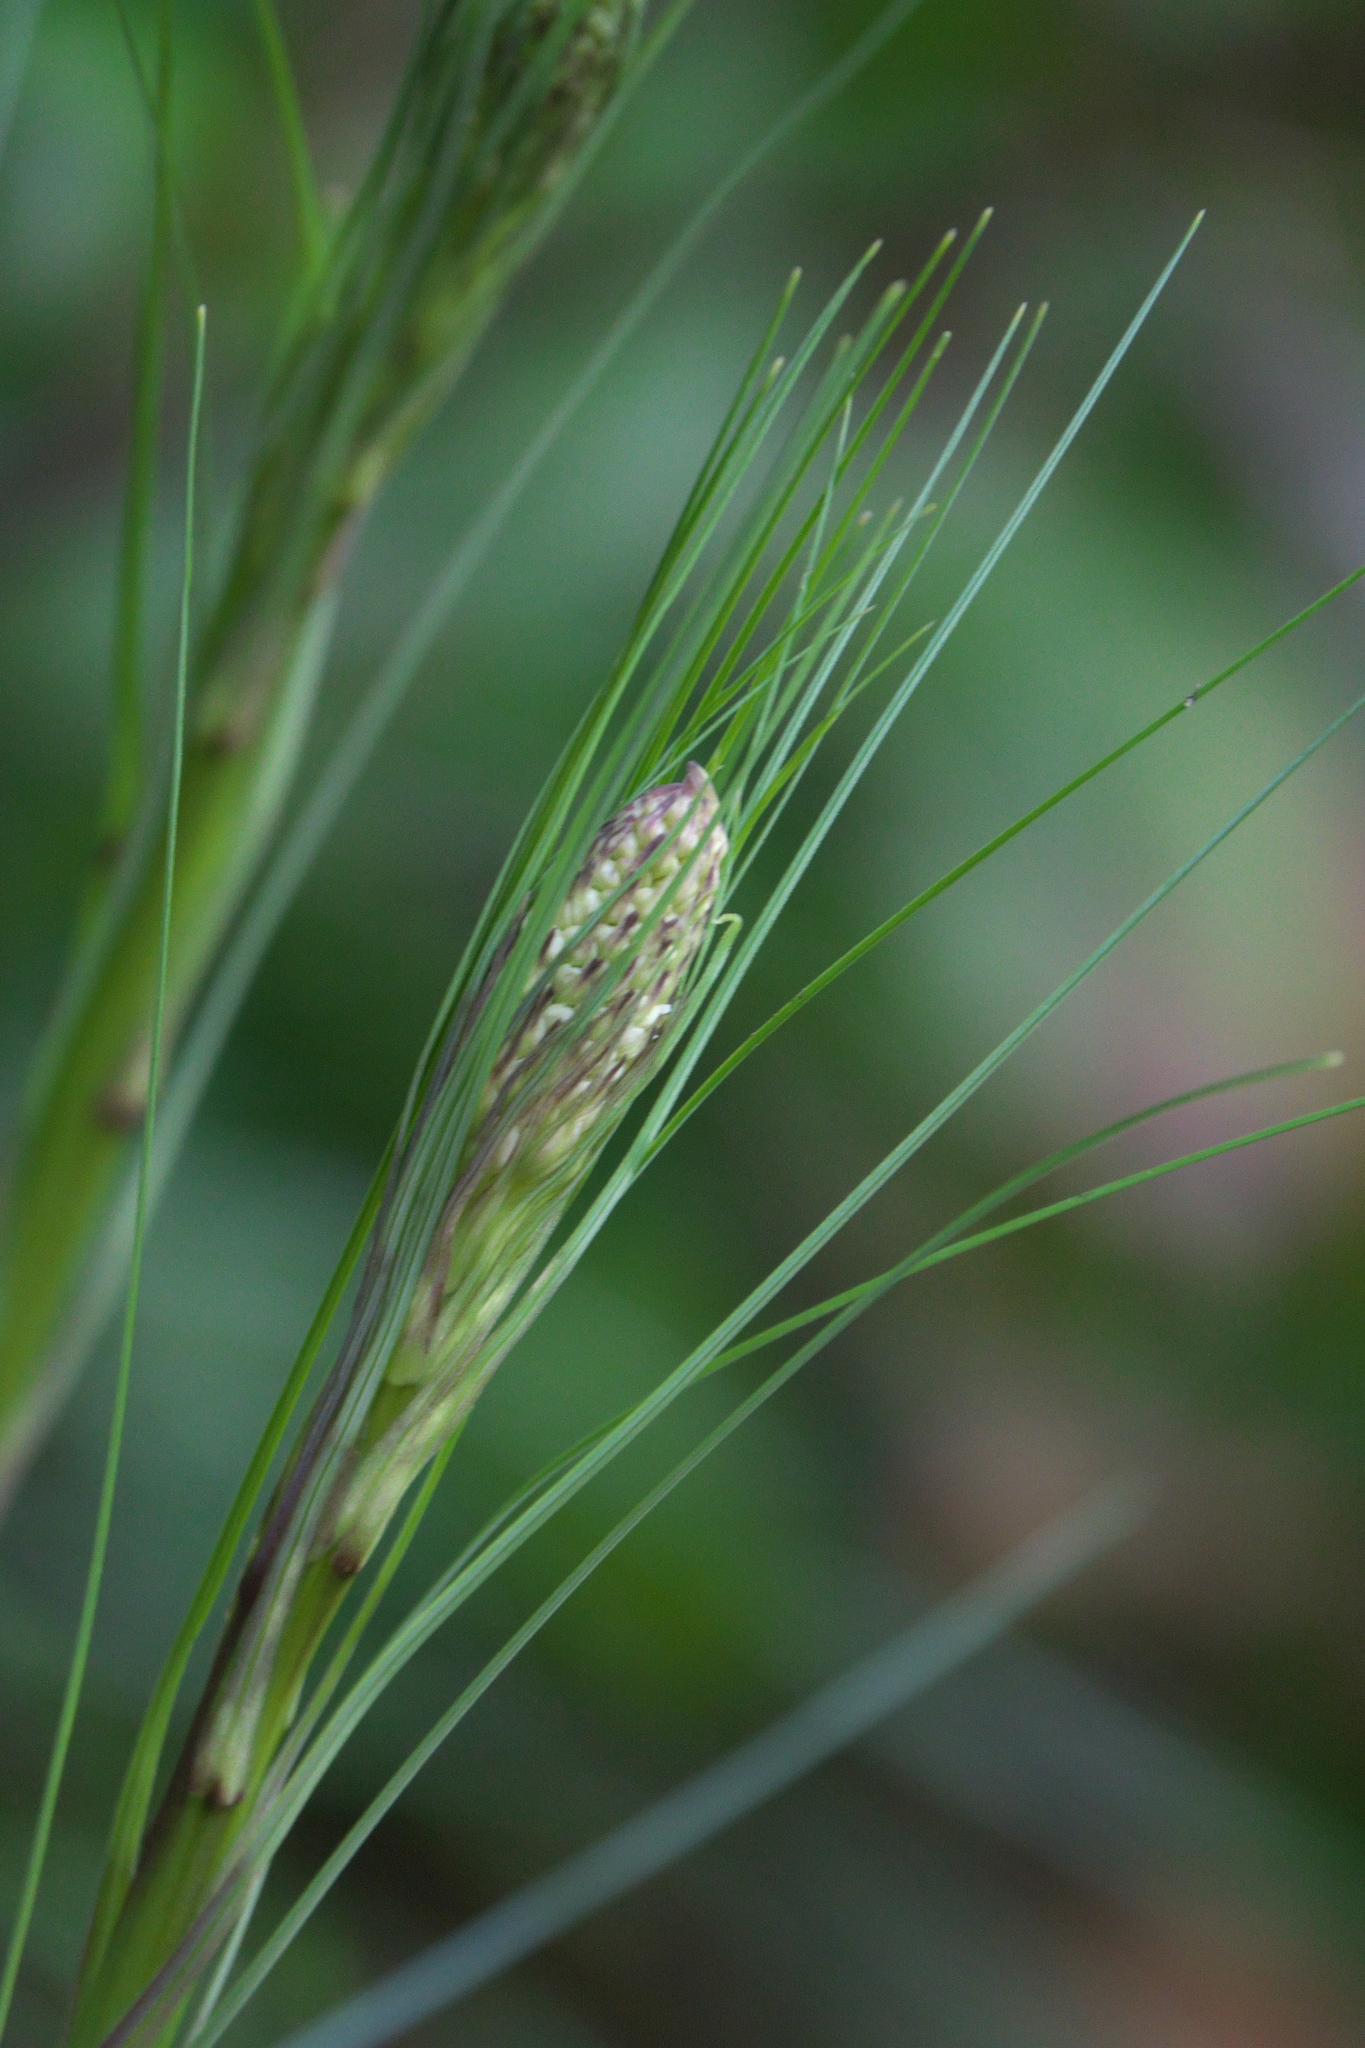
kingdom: Plantae
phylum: Tracheophyta
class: Liliopsida
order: Liliales
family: Melanthiaceae
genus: Xerophyllum
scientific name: Xerophyllum tenax
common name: Bear-grass
